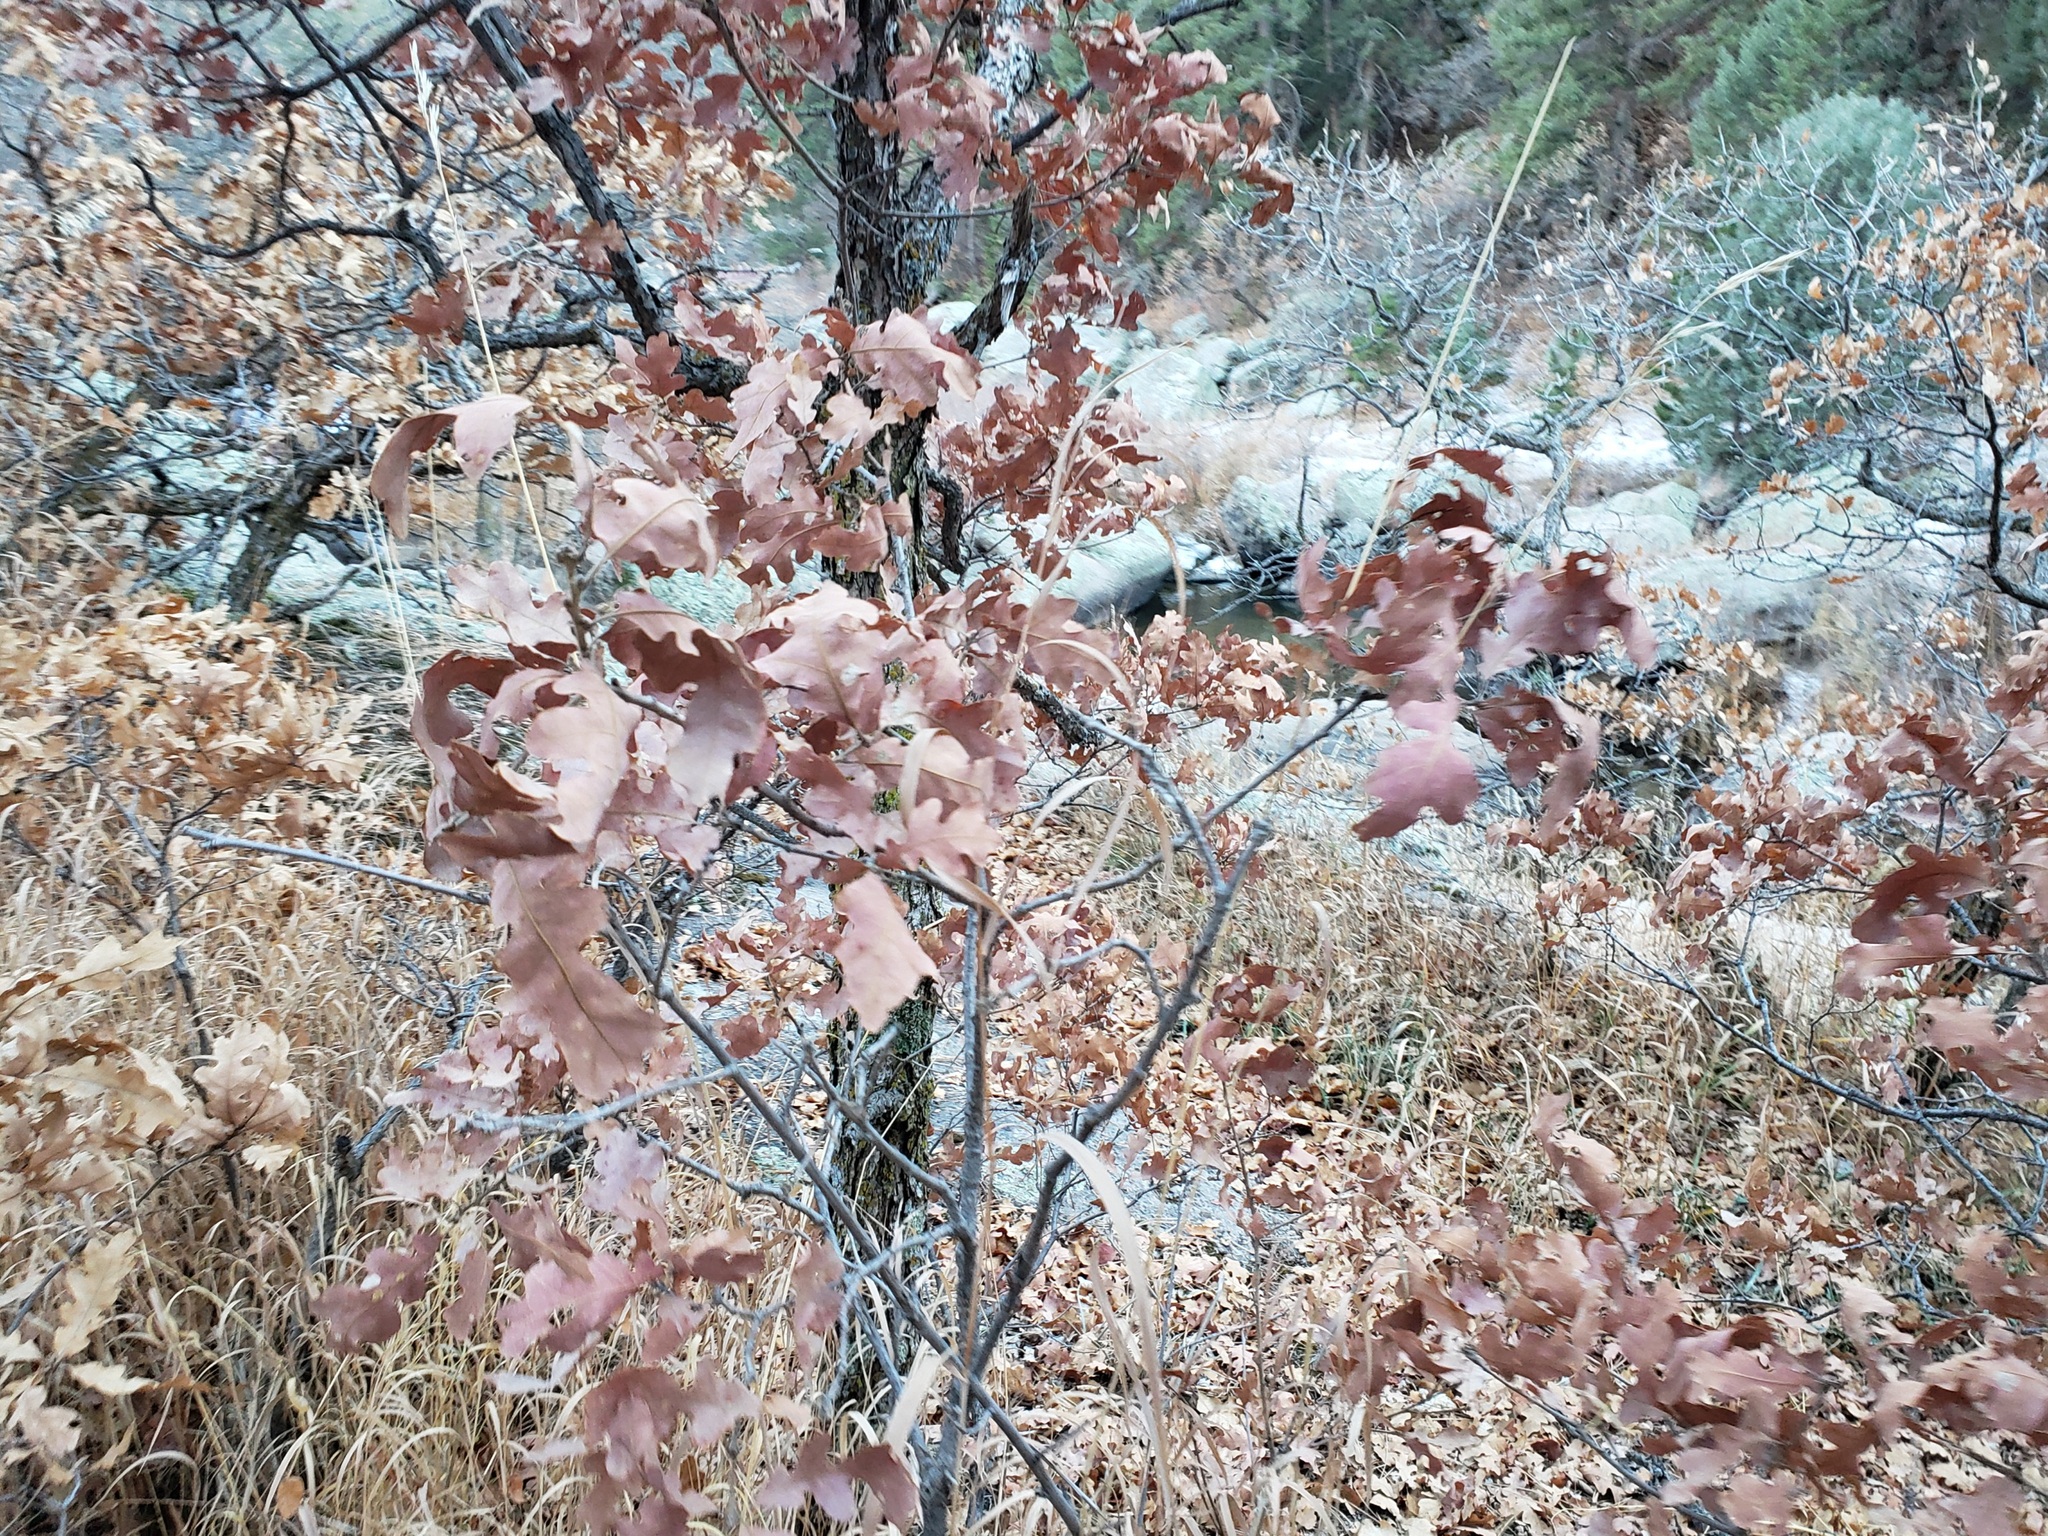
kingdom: Plantae
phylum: Tracheophyta
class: Magnoliopsida
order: Fagales
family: Fagaceae
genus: Quercus
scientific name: Quercus gambelii
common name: Gambel oak
